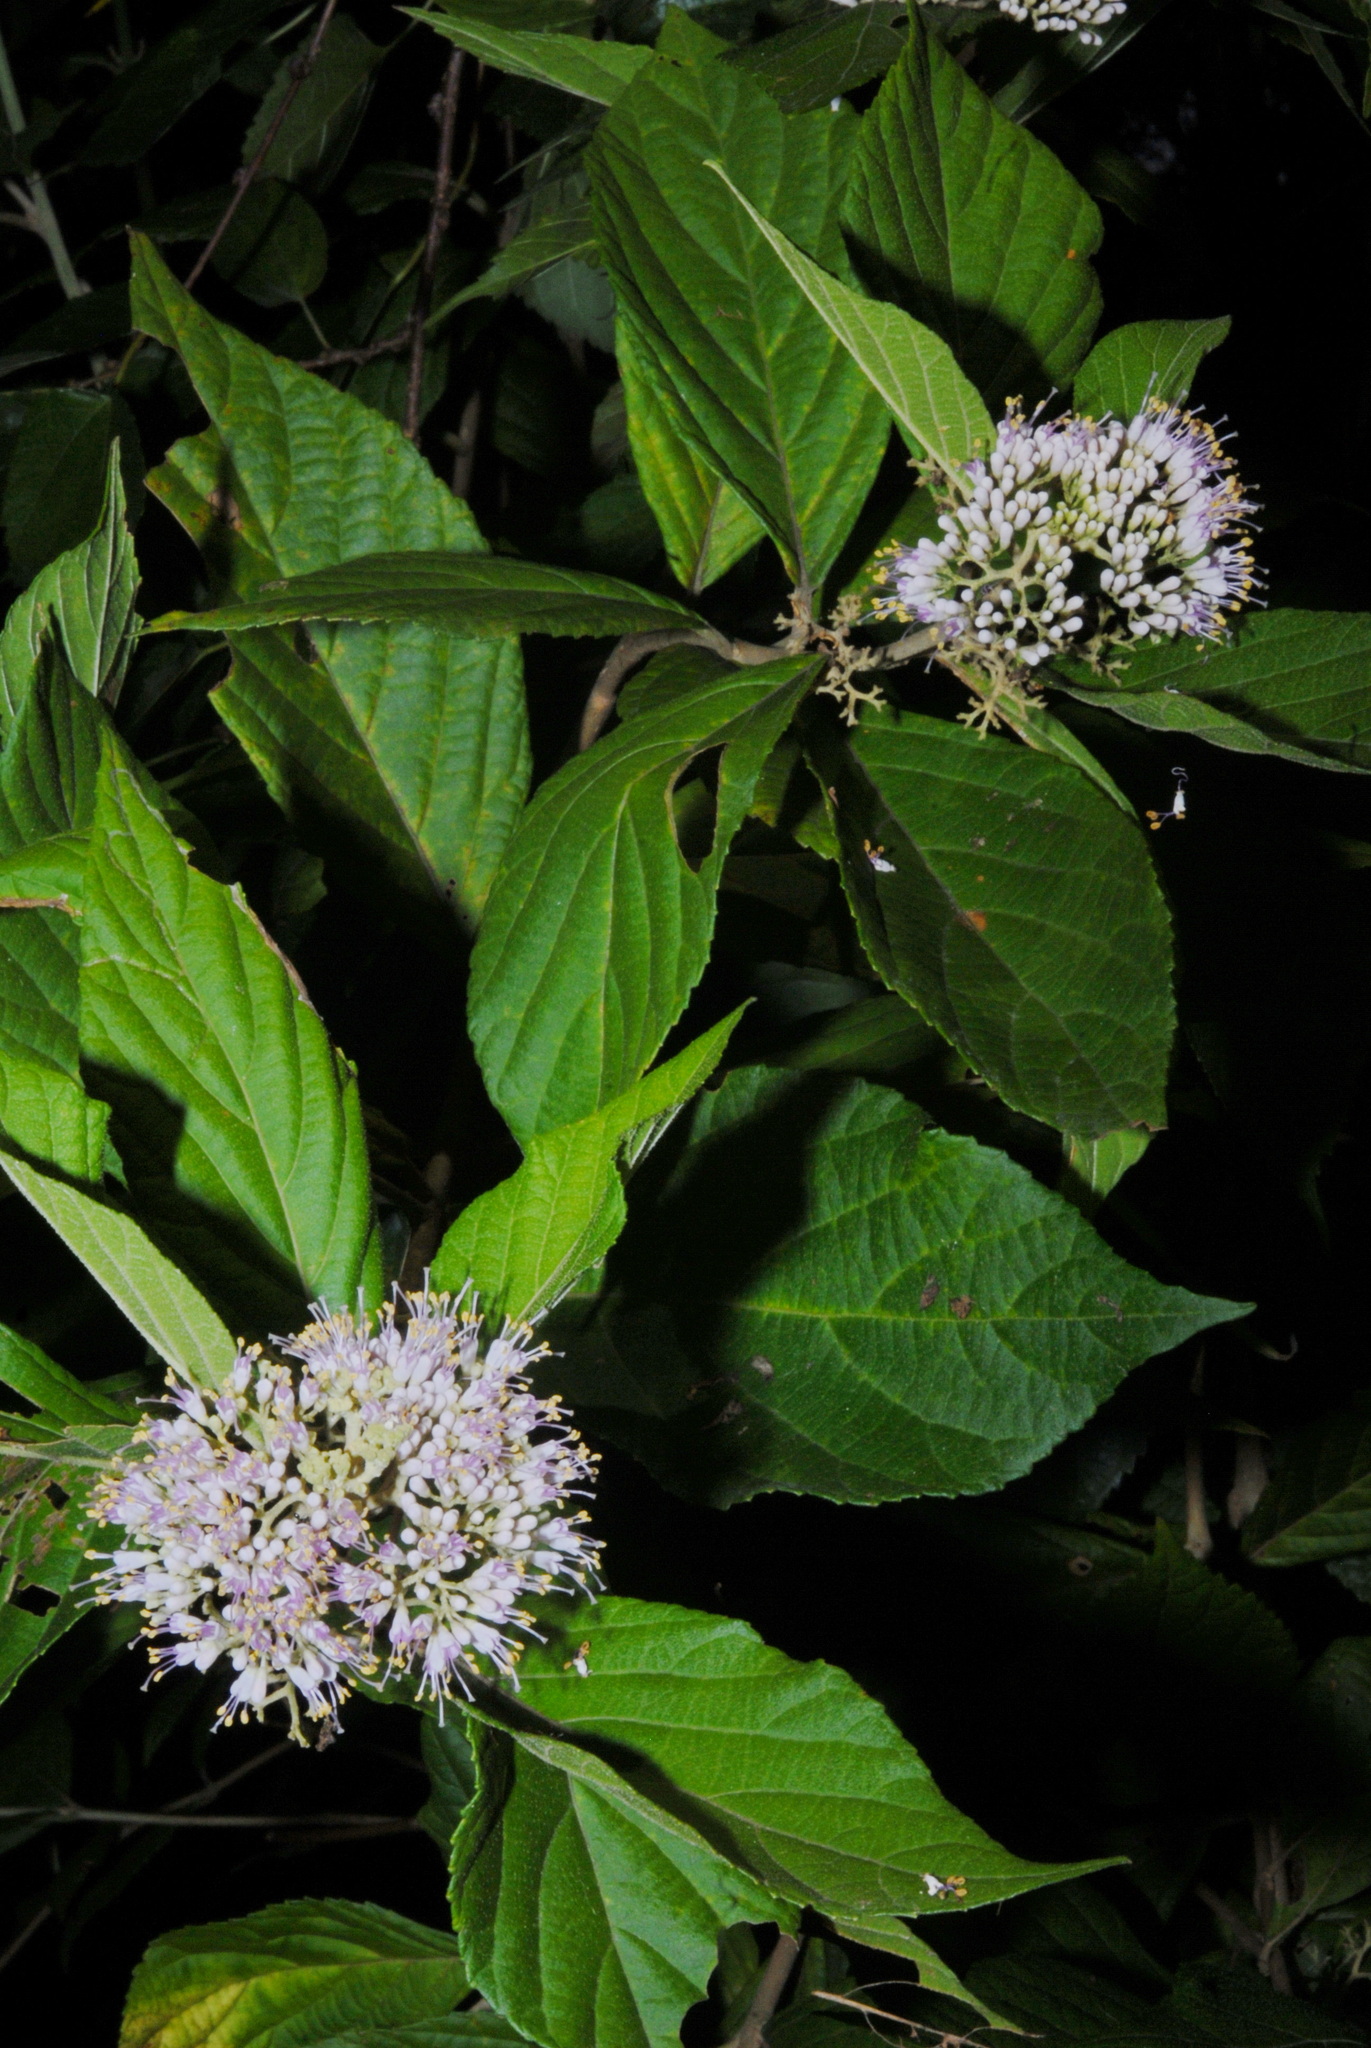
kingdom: Plantae
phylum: Tracheophyta
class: Magnoliopsida
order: Lamiales
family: Lamiaceae
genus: Callicarpa
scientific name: Callicarpa pedunculata
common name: Velvetleaf
